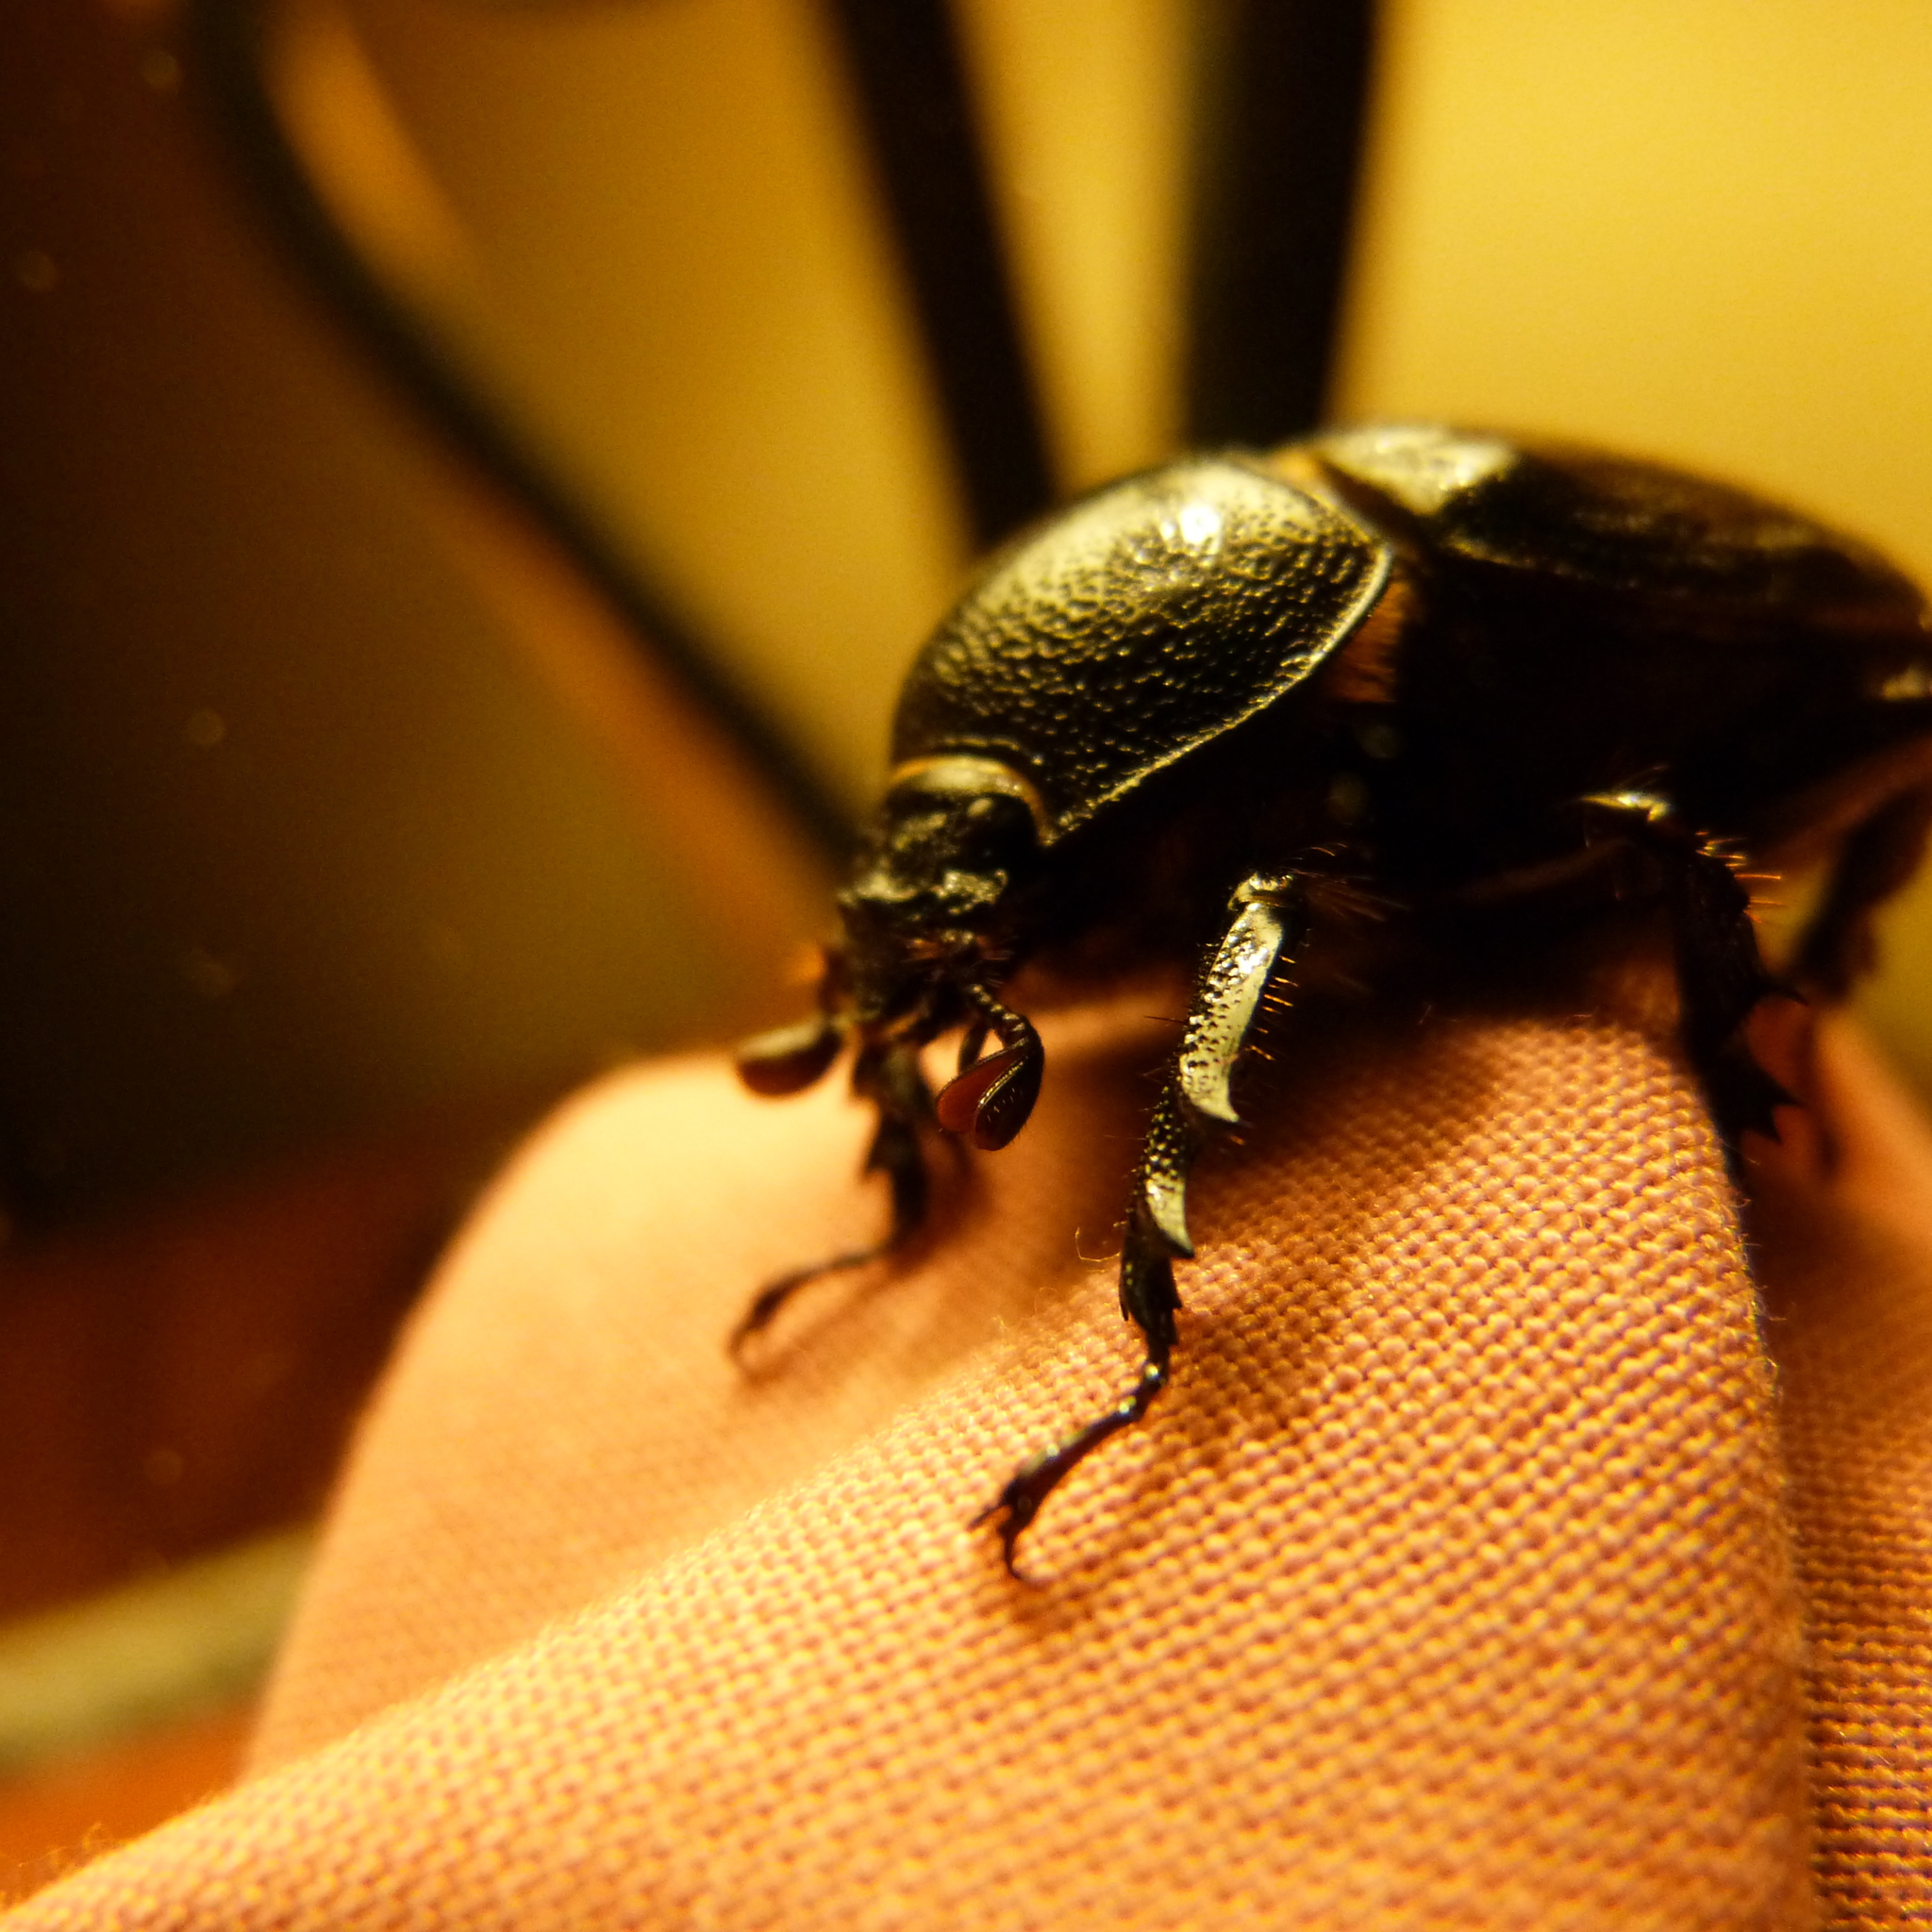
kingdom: Animalia
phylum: Arthropoda
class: Insecta
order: Coleoptera
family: Scarabaeidae
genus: Cyphonistes
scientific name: Cyphonistes vallatus
